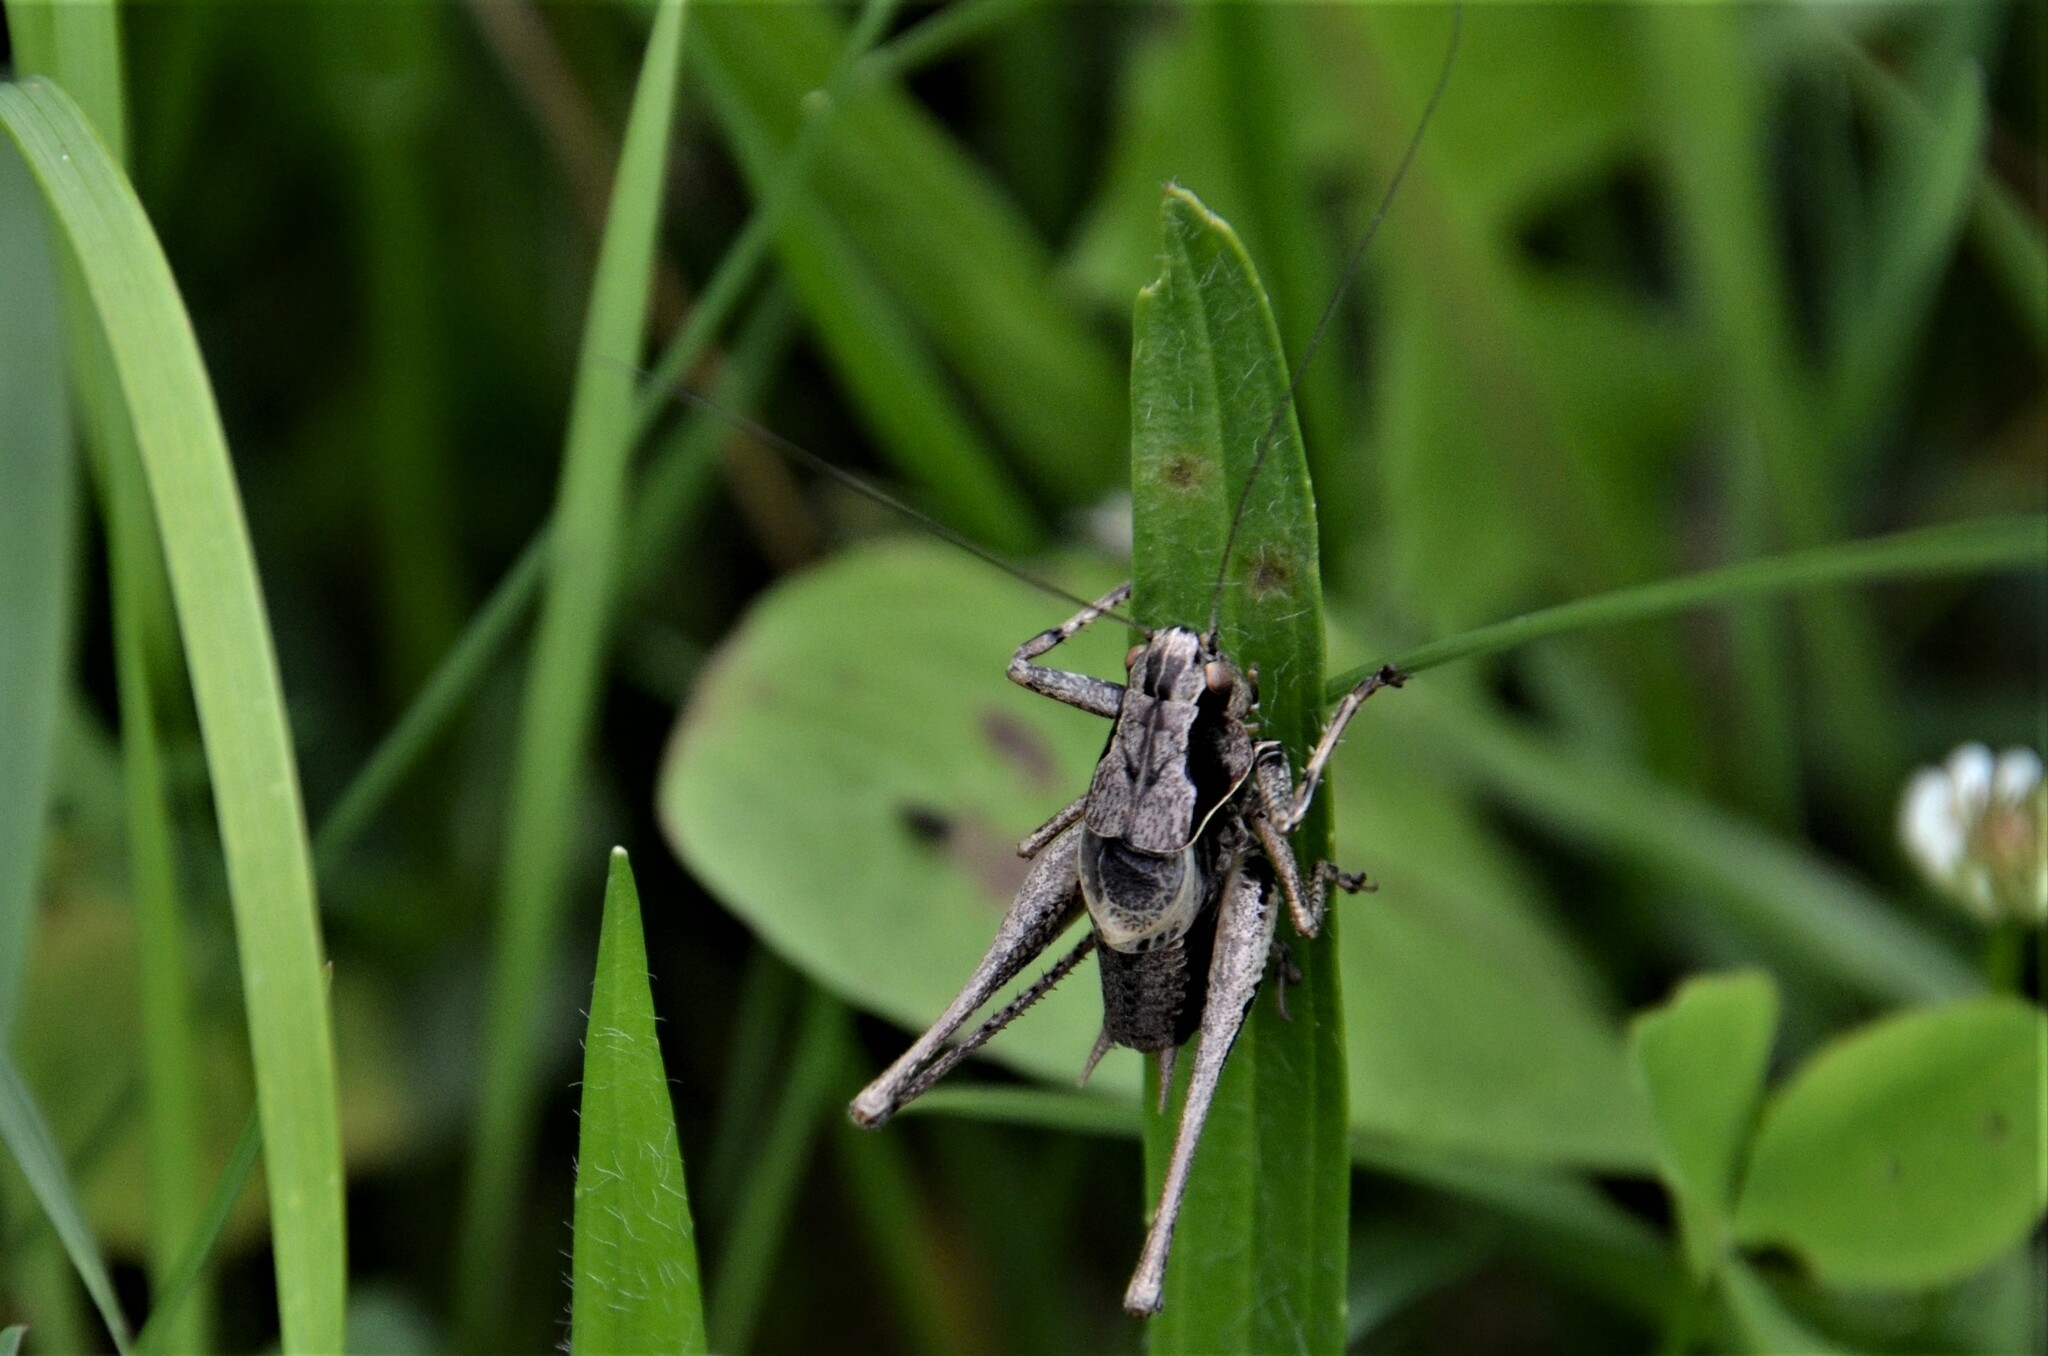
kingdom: Animalia
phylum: Arthropoda
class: Insecta
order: Orthoptera
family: Tettigoniidae
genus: Pholidoptera
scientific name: Pholidoptera griseoaptera
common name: Dark bush-cricket
